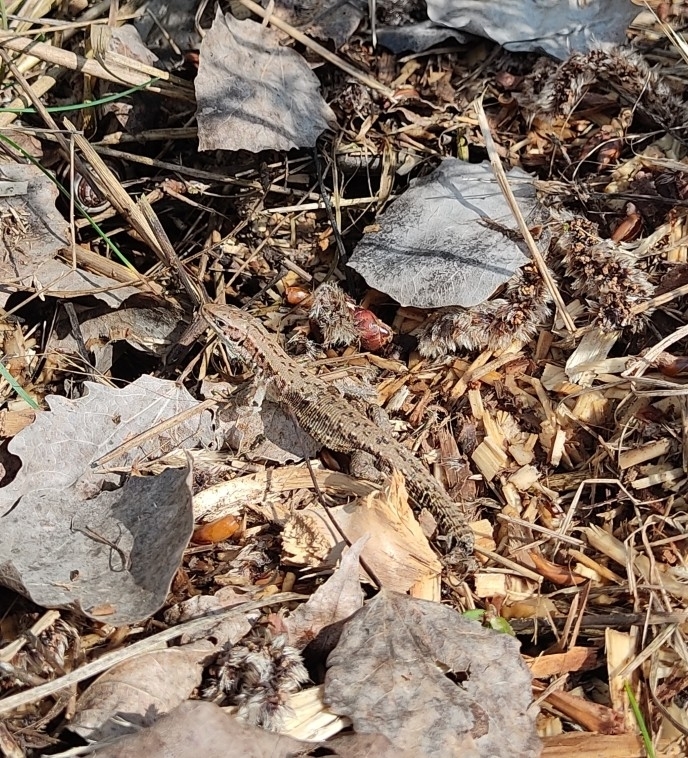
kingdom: Animalia
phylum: Chordata
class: Squamata
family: Lacertidae
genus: Zootoca
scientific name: Zootoca vivipara
